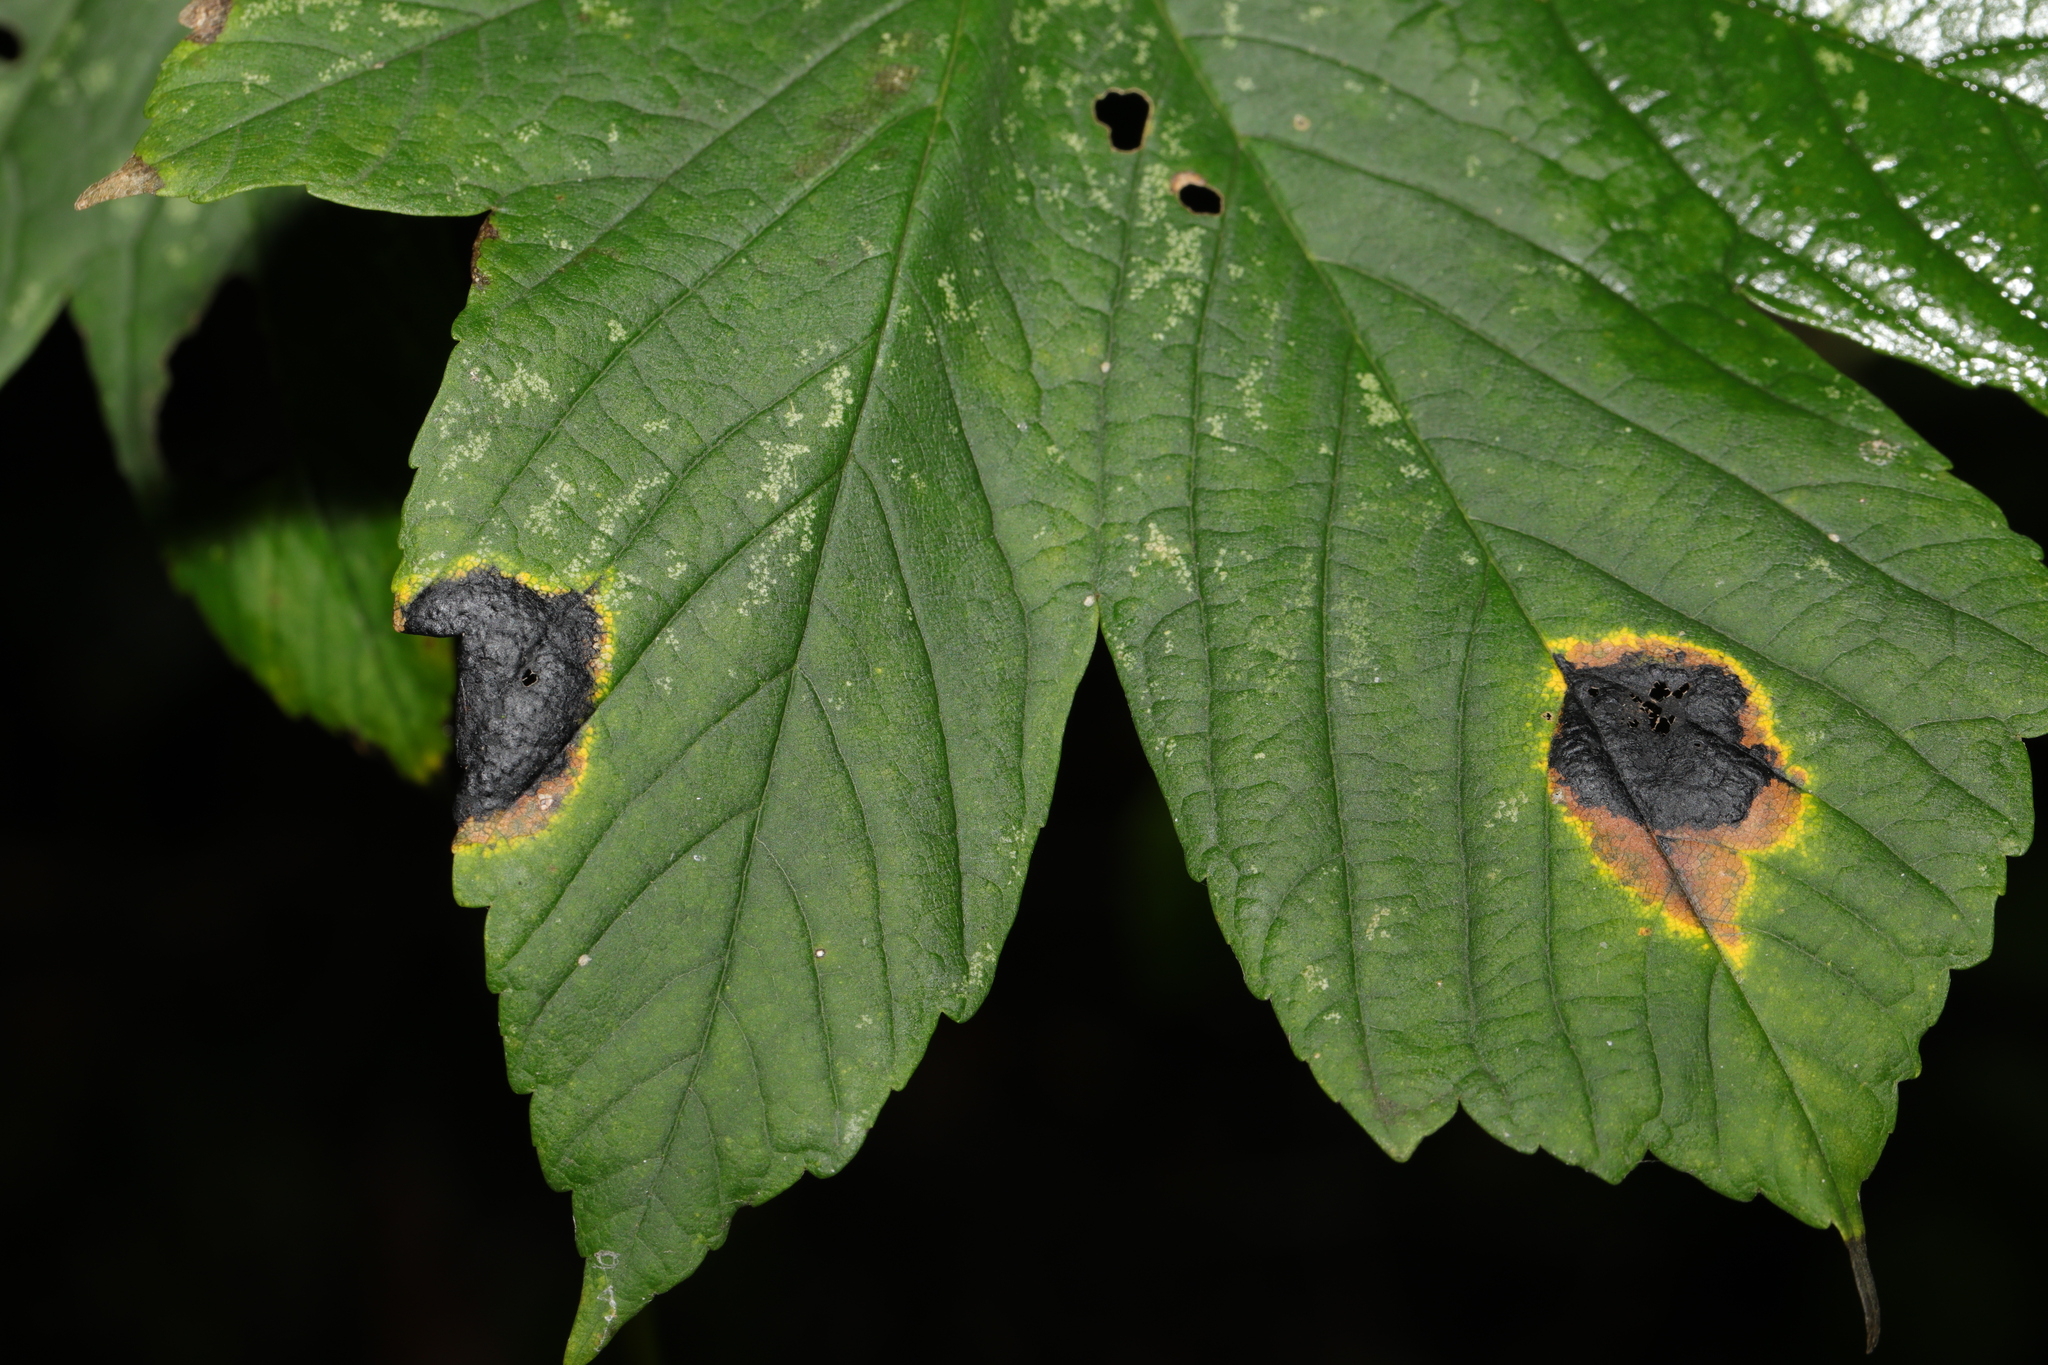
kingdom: Fungi
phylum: Ascomycota
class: Leotiomycetes
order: Rhytismatales
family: Rhytismataceae
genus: Rhytisma
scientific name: Rhytisma acerinum
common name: European tar spot
